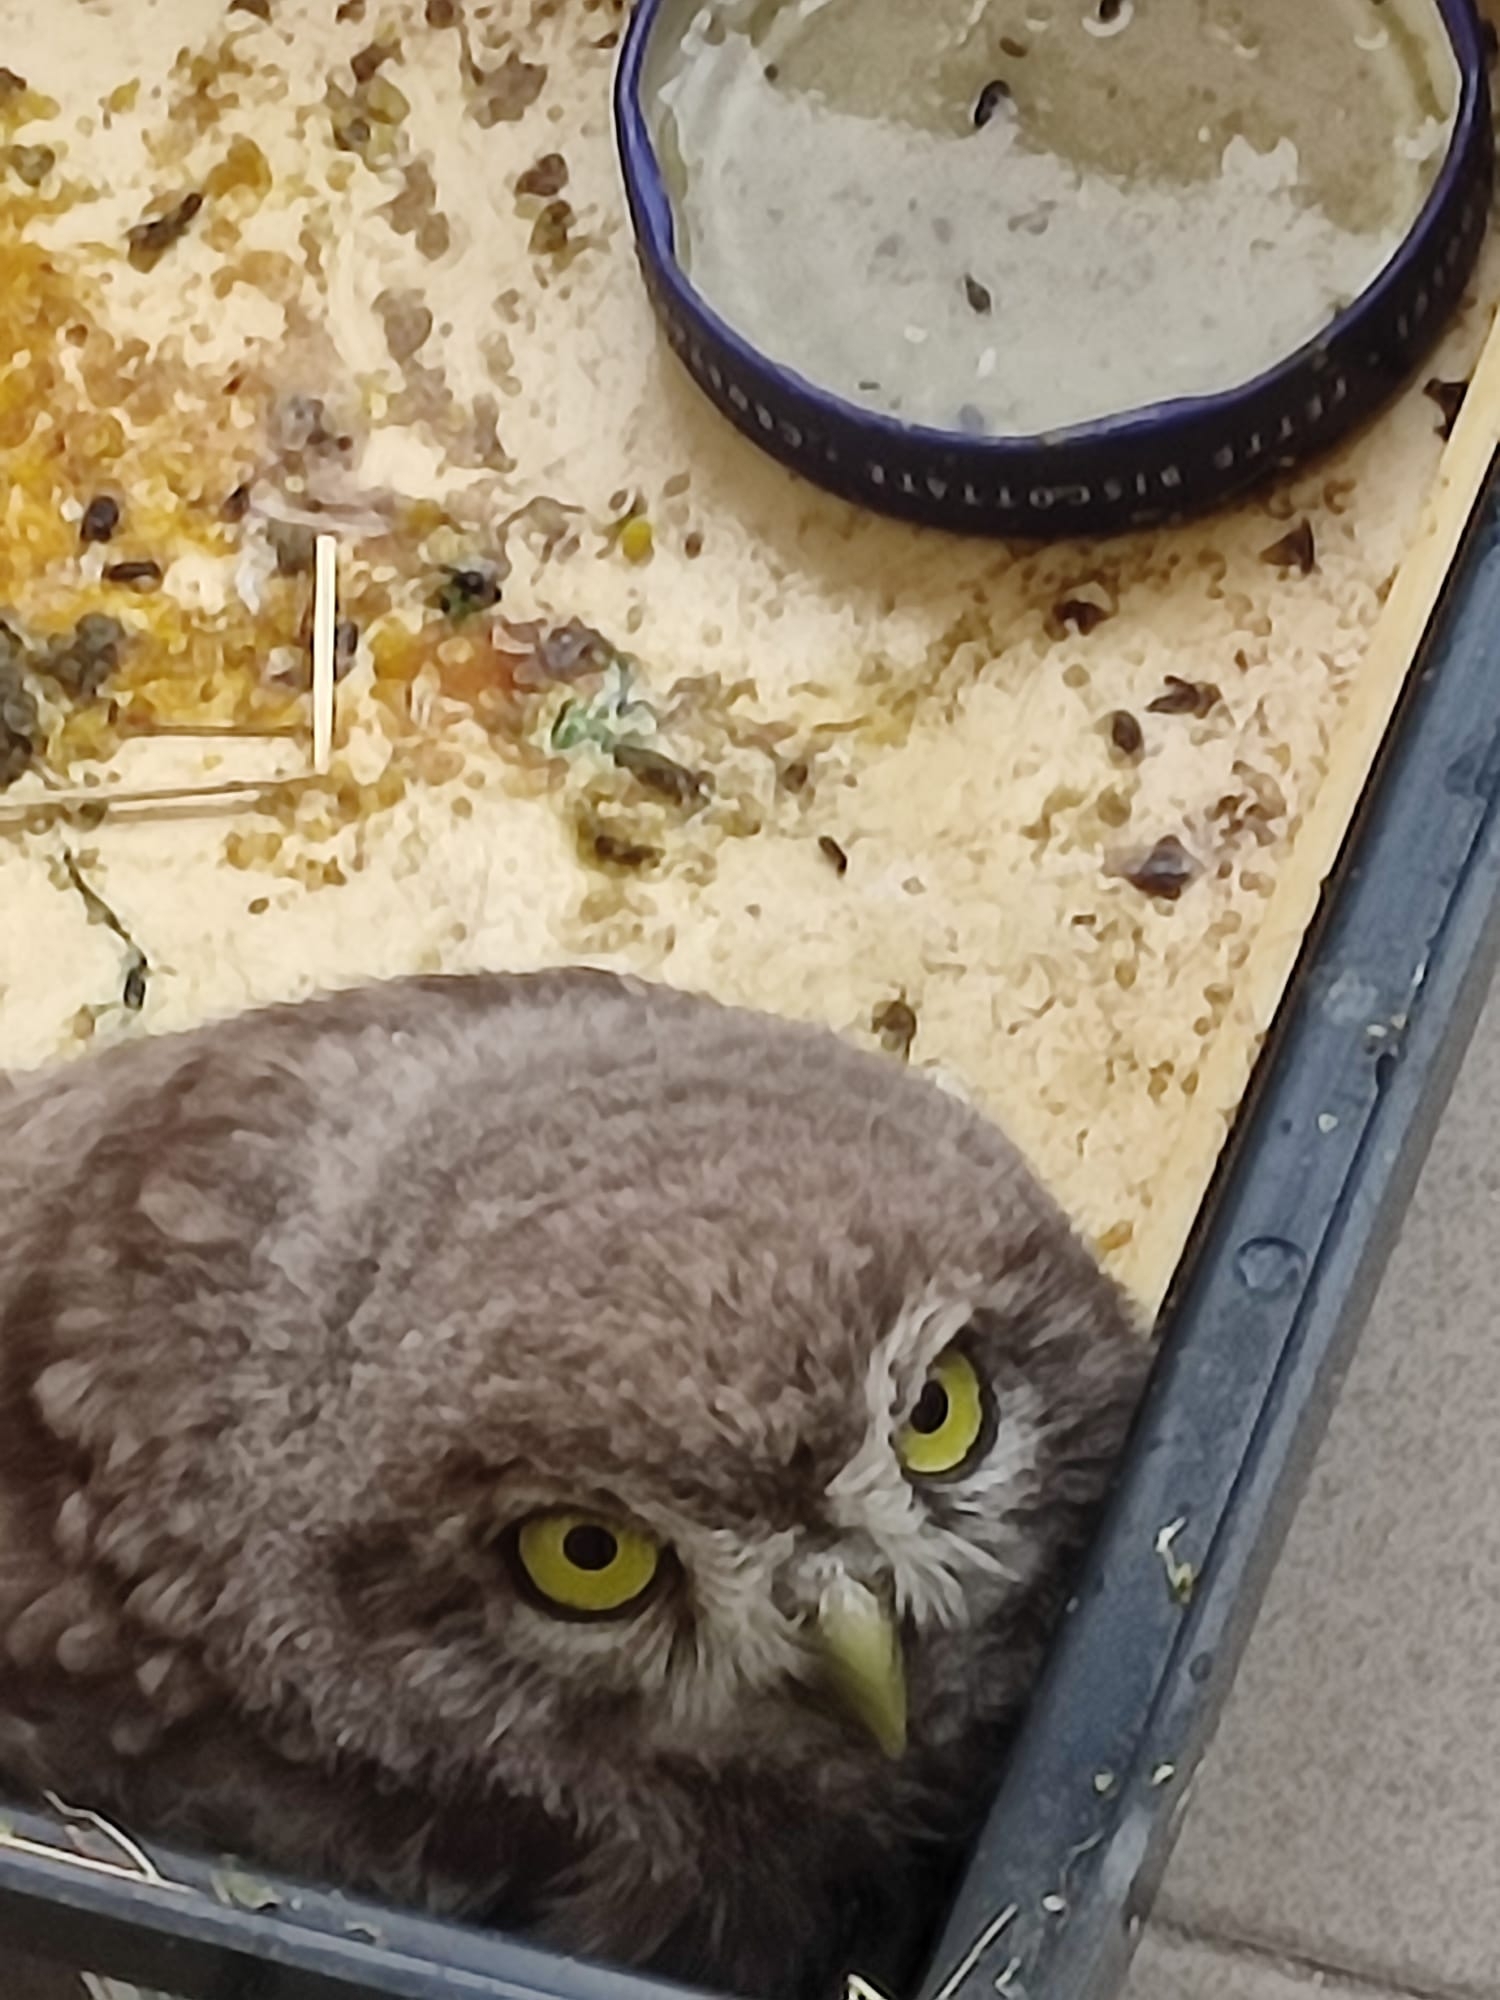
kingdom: Animalia
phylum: Chordata
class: Aves
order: Strigiformes
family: Strigidae
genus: Athene
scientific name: Athene noctua
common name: Little owl
